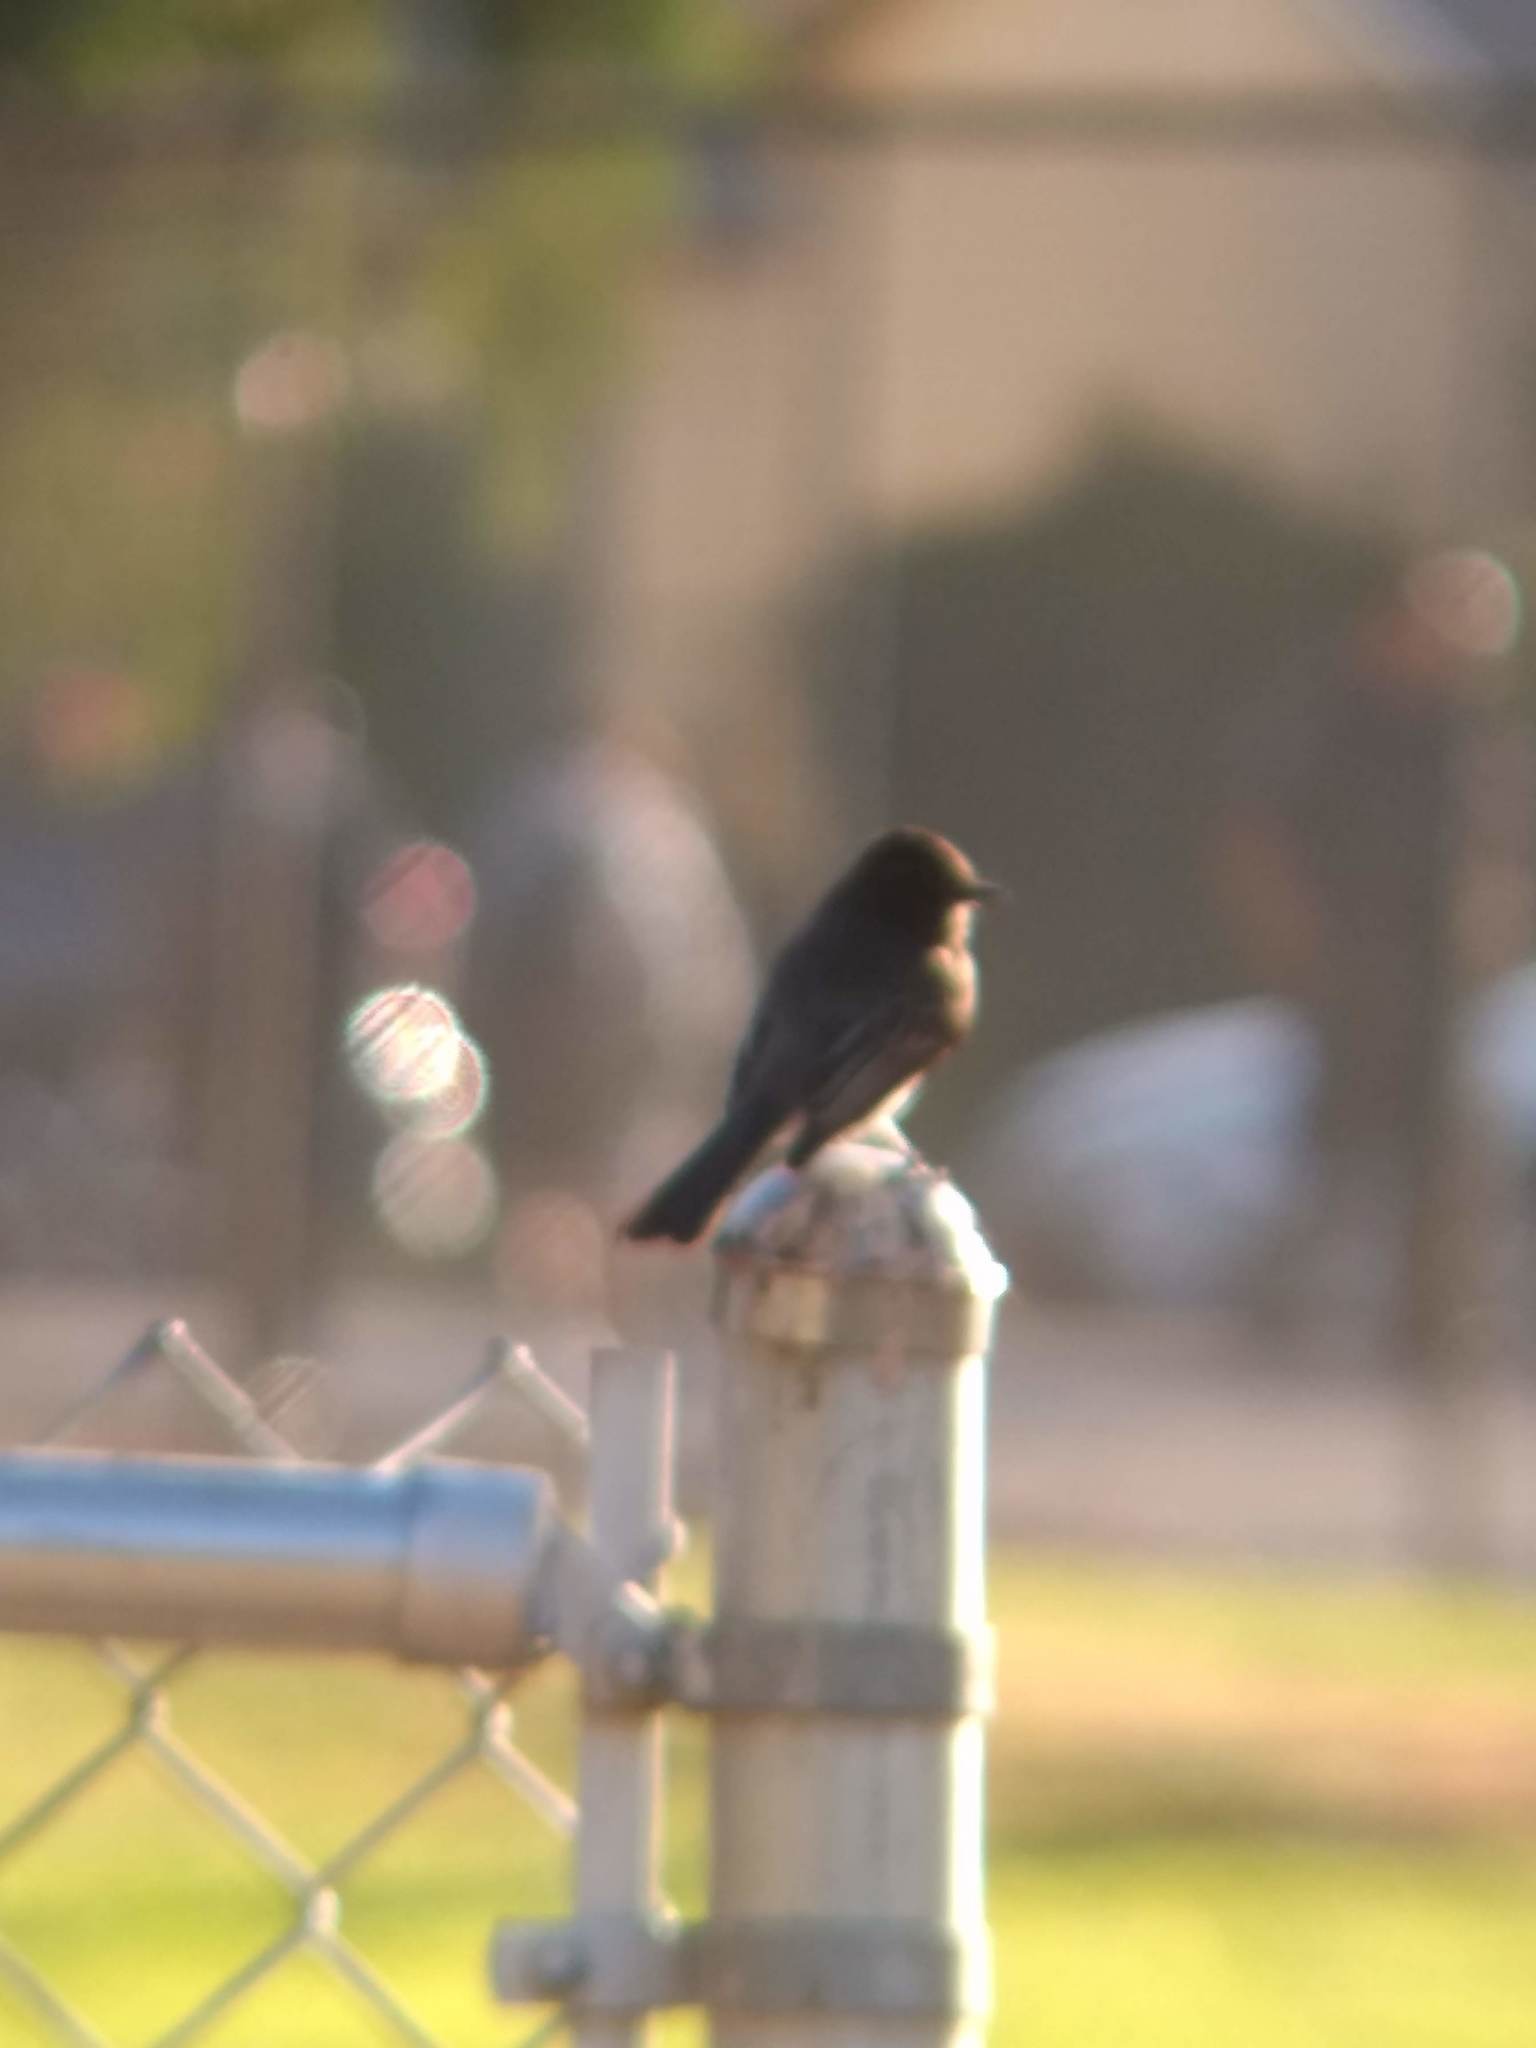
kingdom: Animalia
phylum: Chordata
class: Aves
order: Passeriformes
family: Tyrannidae
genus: Sayornis
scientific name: Sayornis nigricans
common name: Black phoebe
